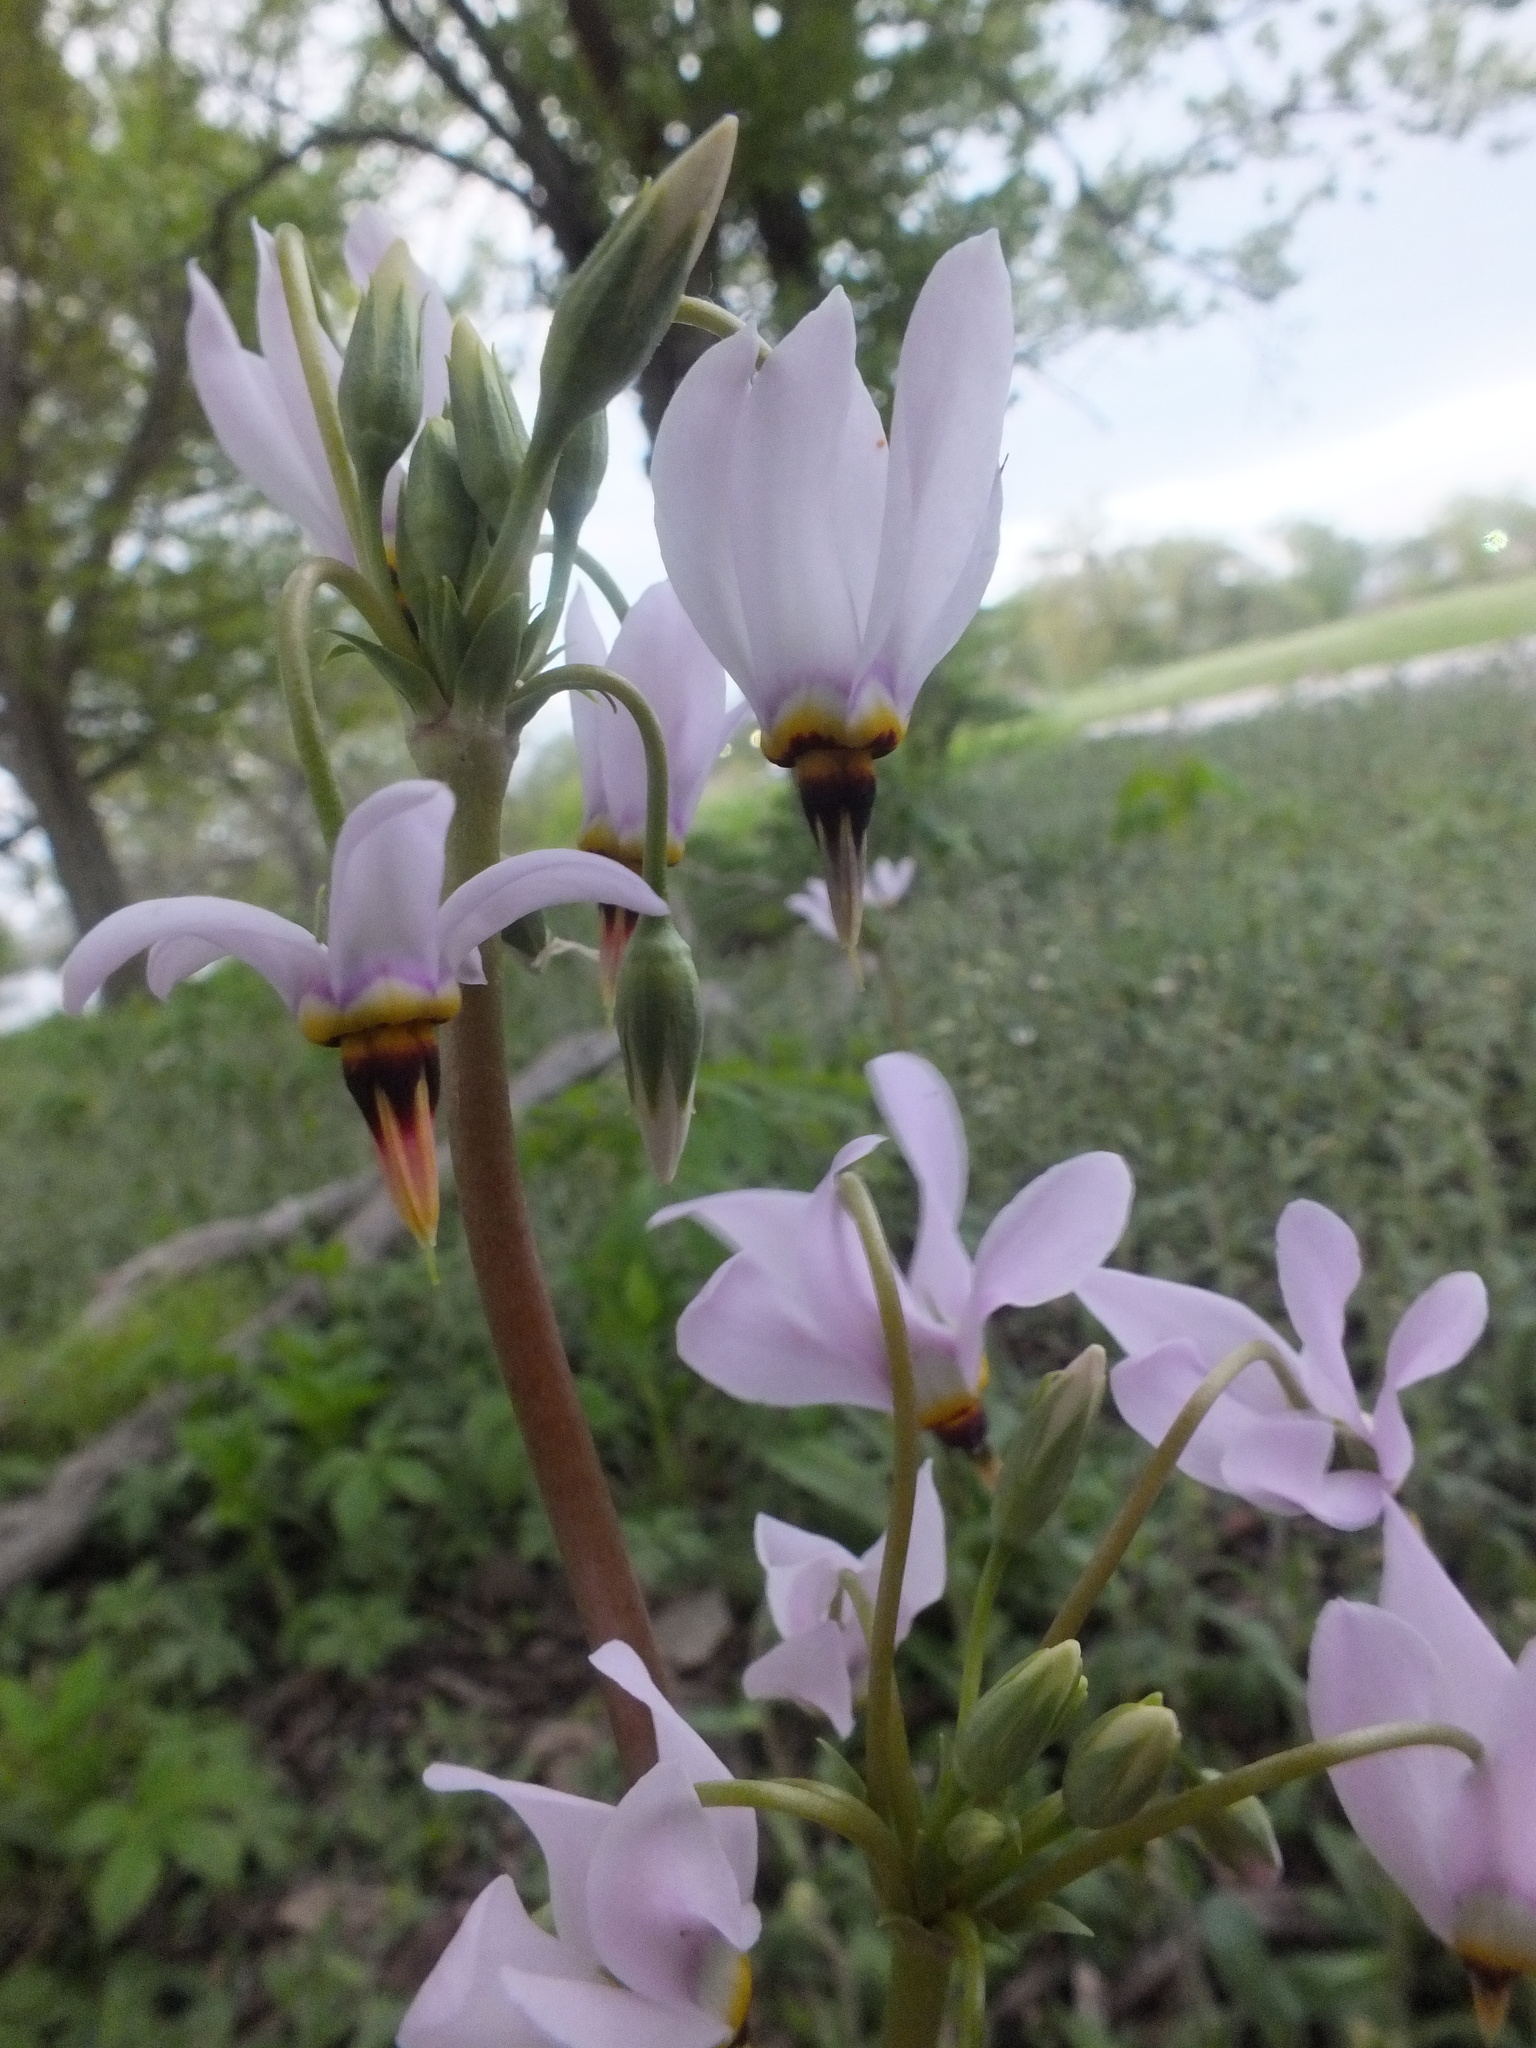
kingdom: Plantae
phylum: Tracheophyta
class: Magnoliopsida
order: Ericales
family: Primulaceae
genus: Dodecatheon
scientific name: Dodecatheon meadia
